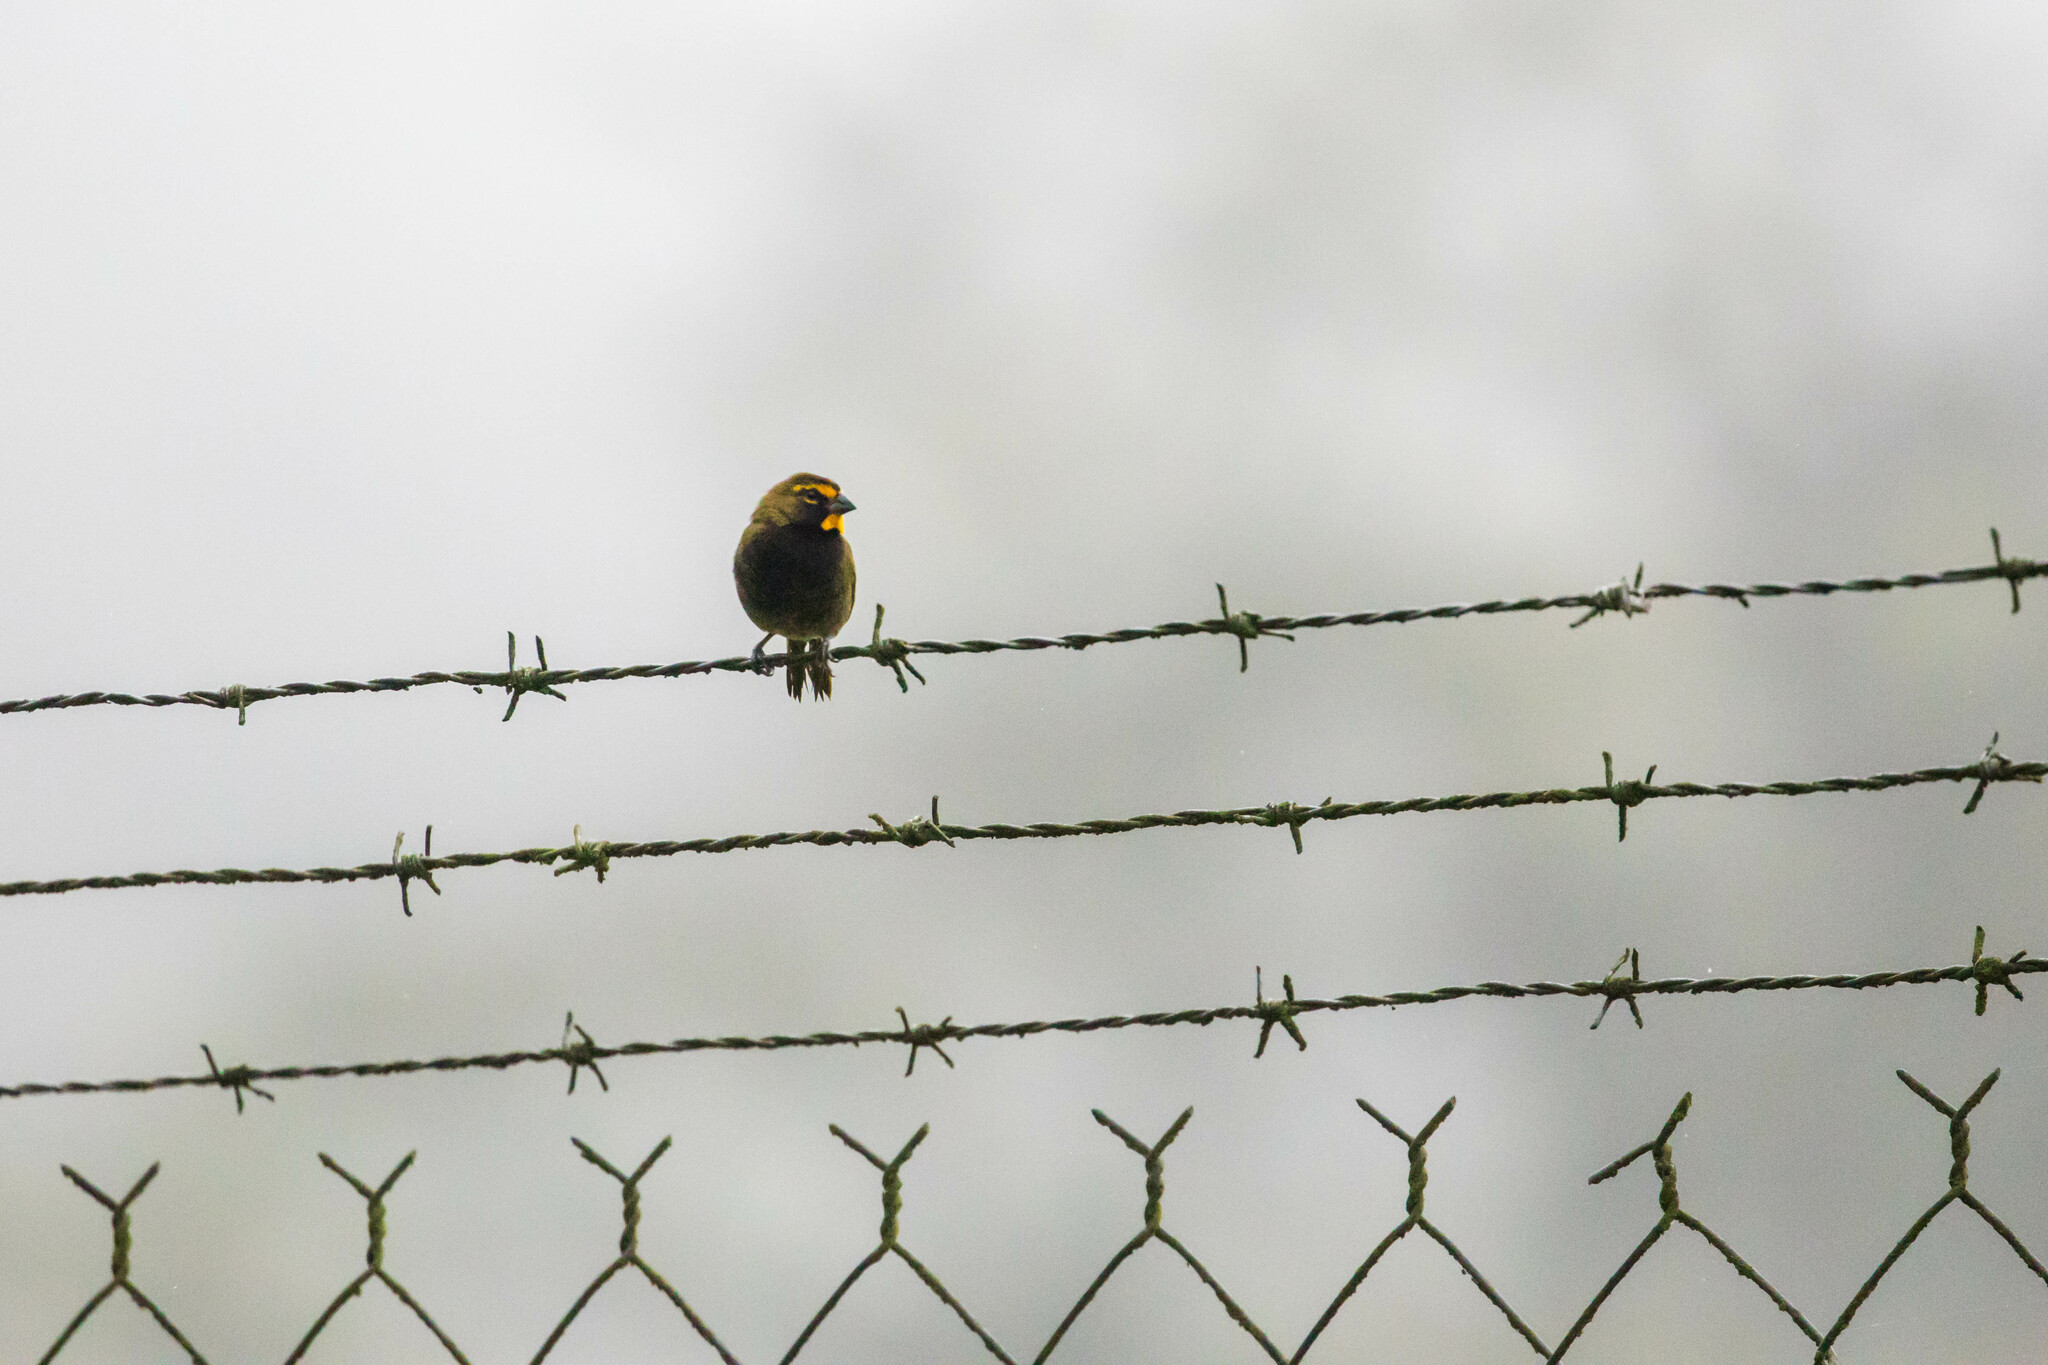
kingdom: Animalia
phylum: Chordata
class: Aves
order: Passeriformes
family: Thraupidae
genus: Tiaris
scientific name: Tiaris olivaceus
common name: Yellow-faced grassquit
